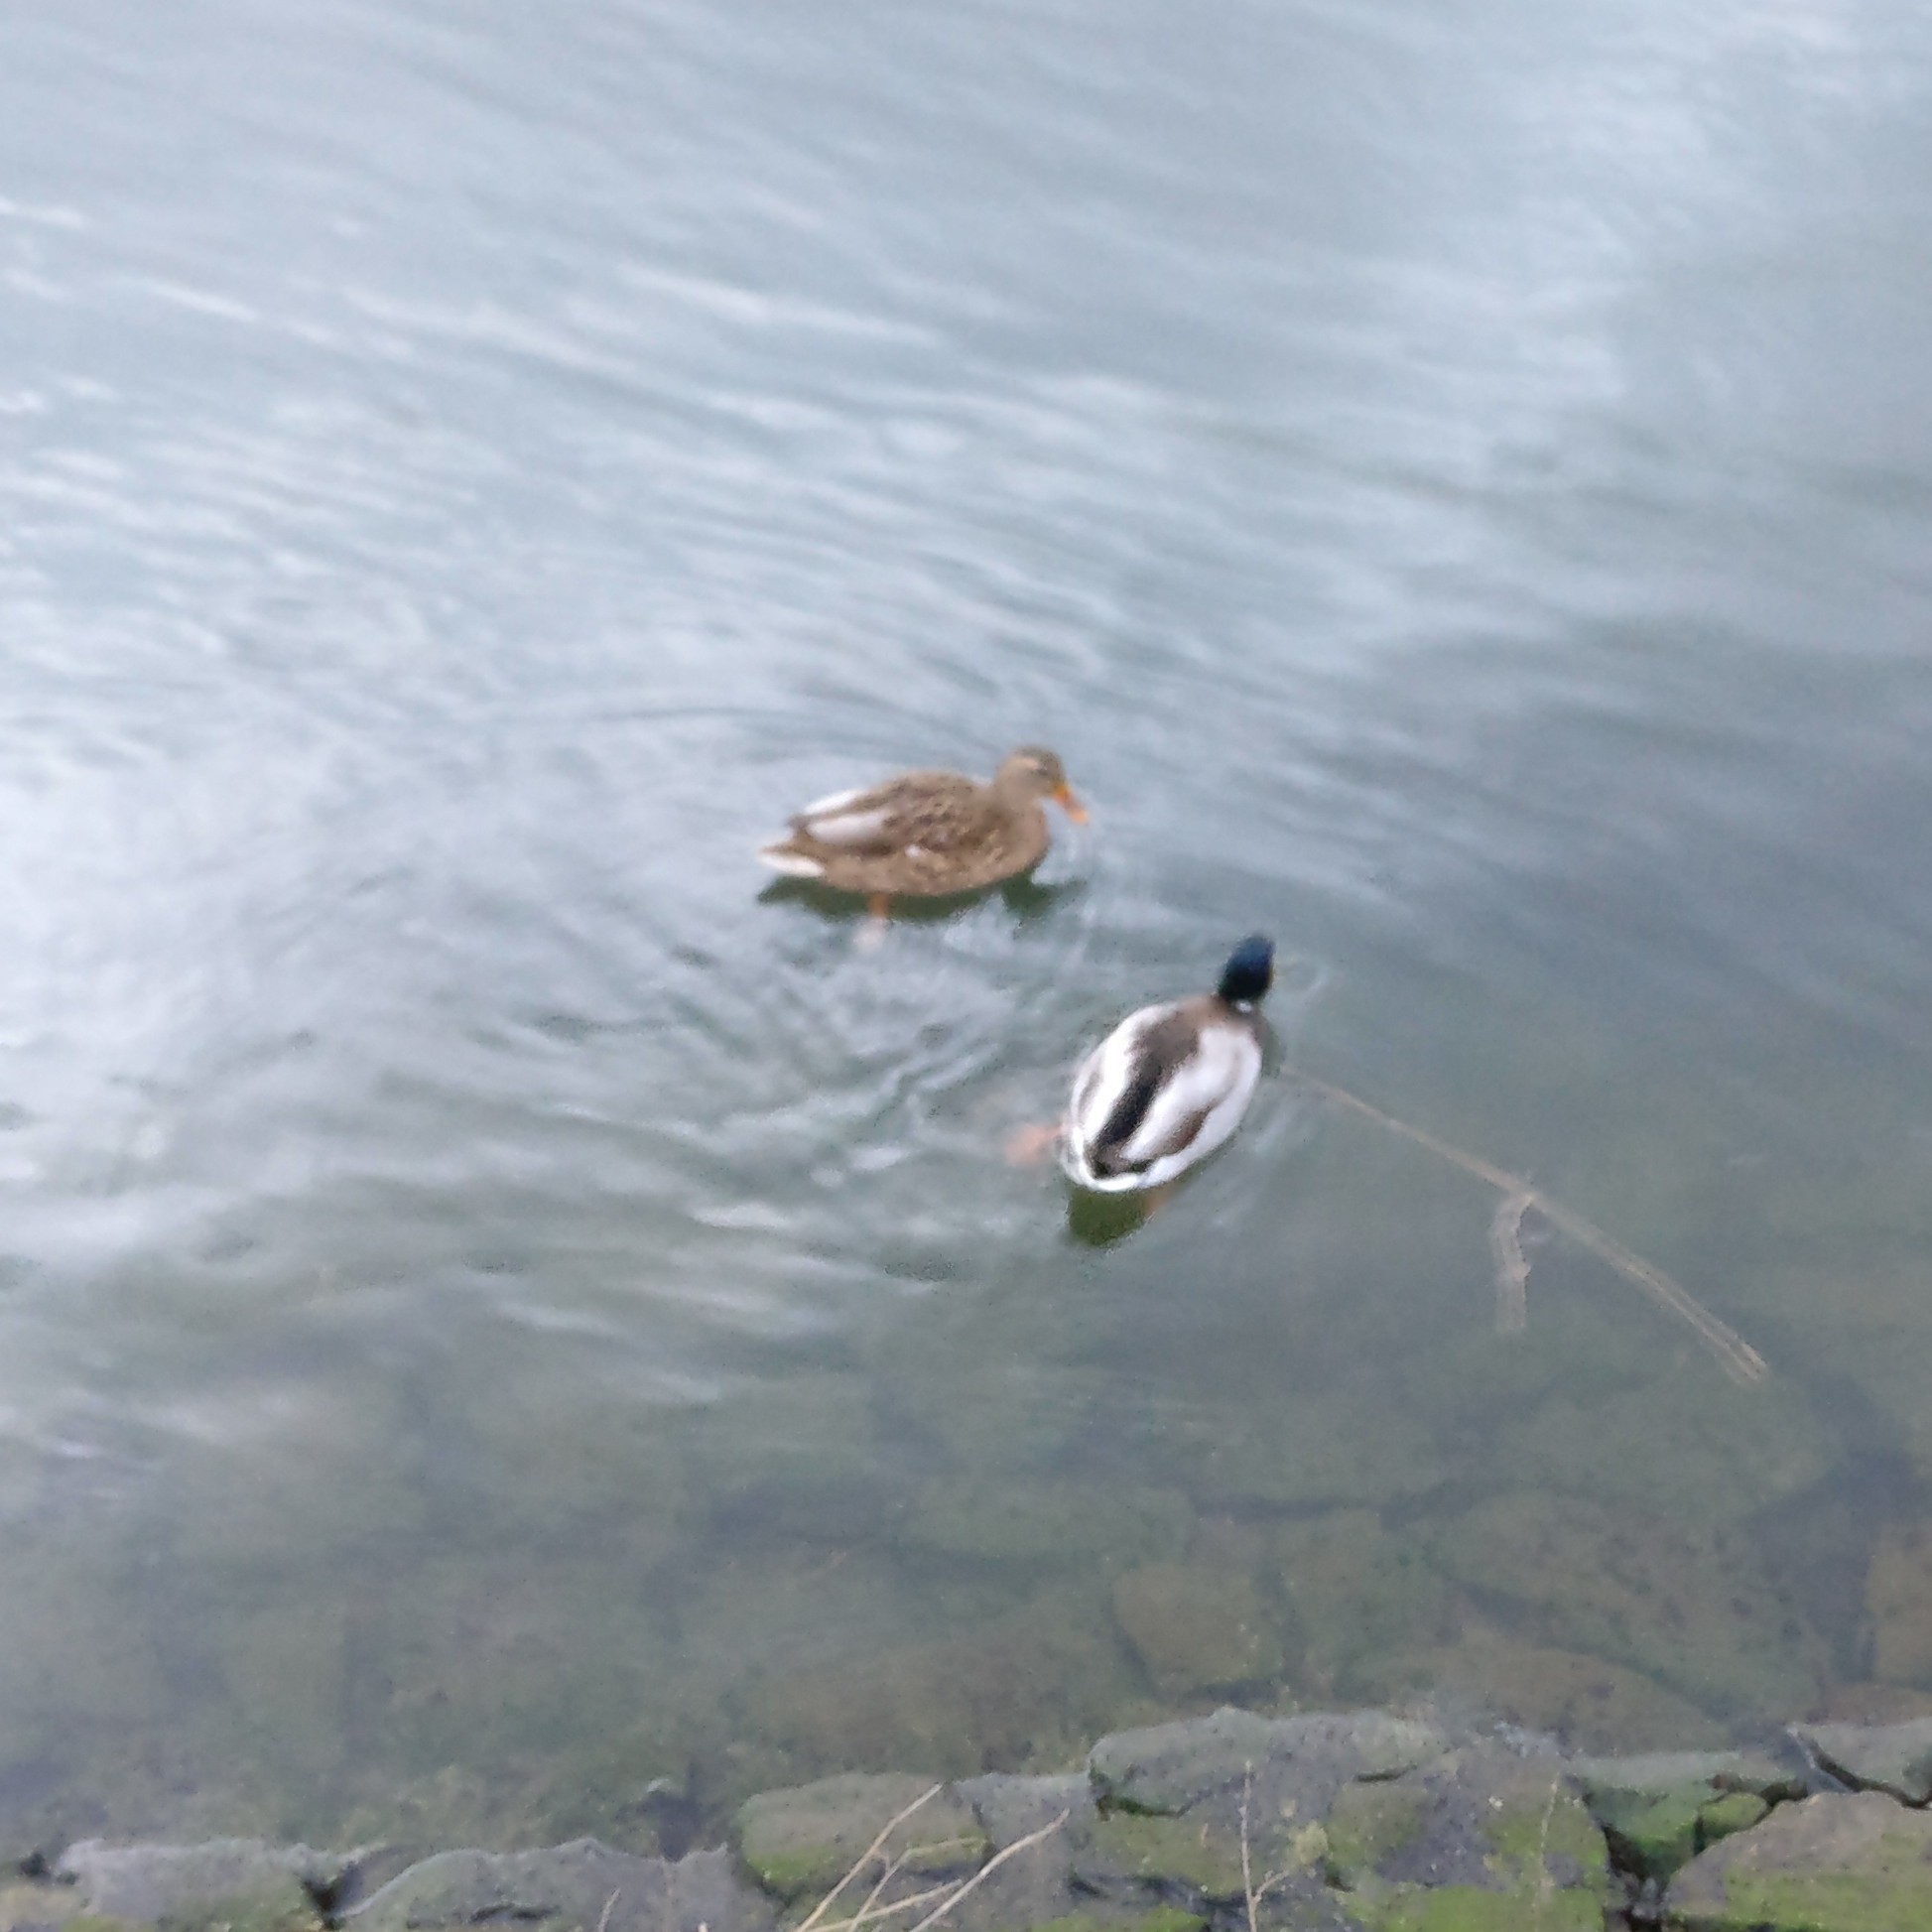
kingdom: Animalia
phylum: Chordata
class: Aves
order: Anseriformes
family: Anatidae
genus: Anas
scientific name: Anas platyrhynchos
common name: Mallard
